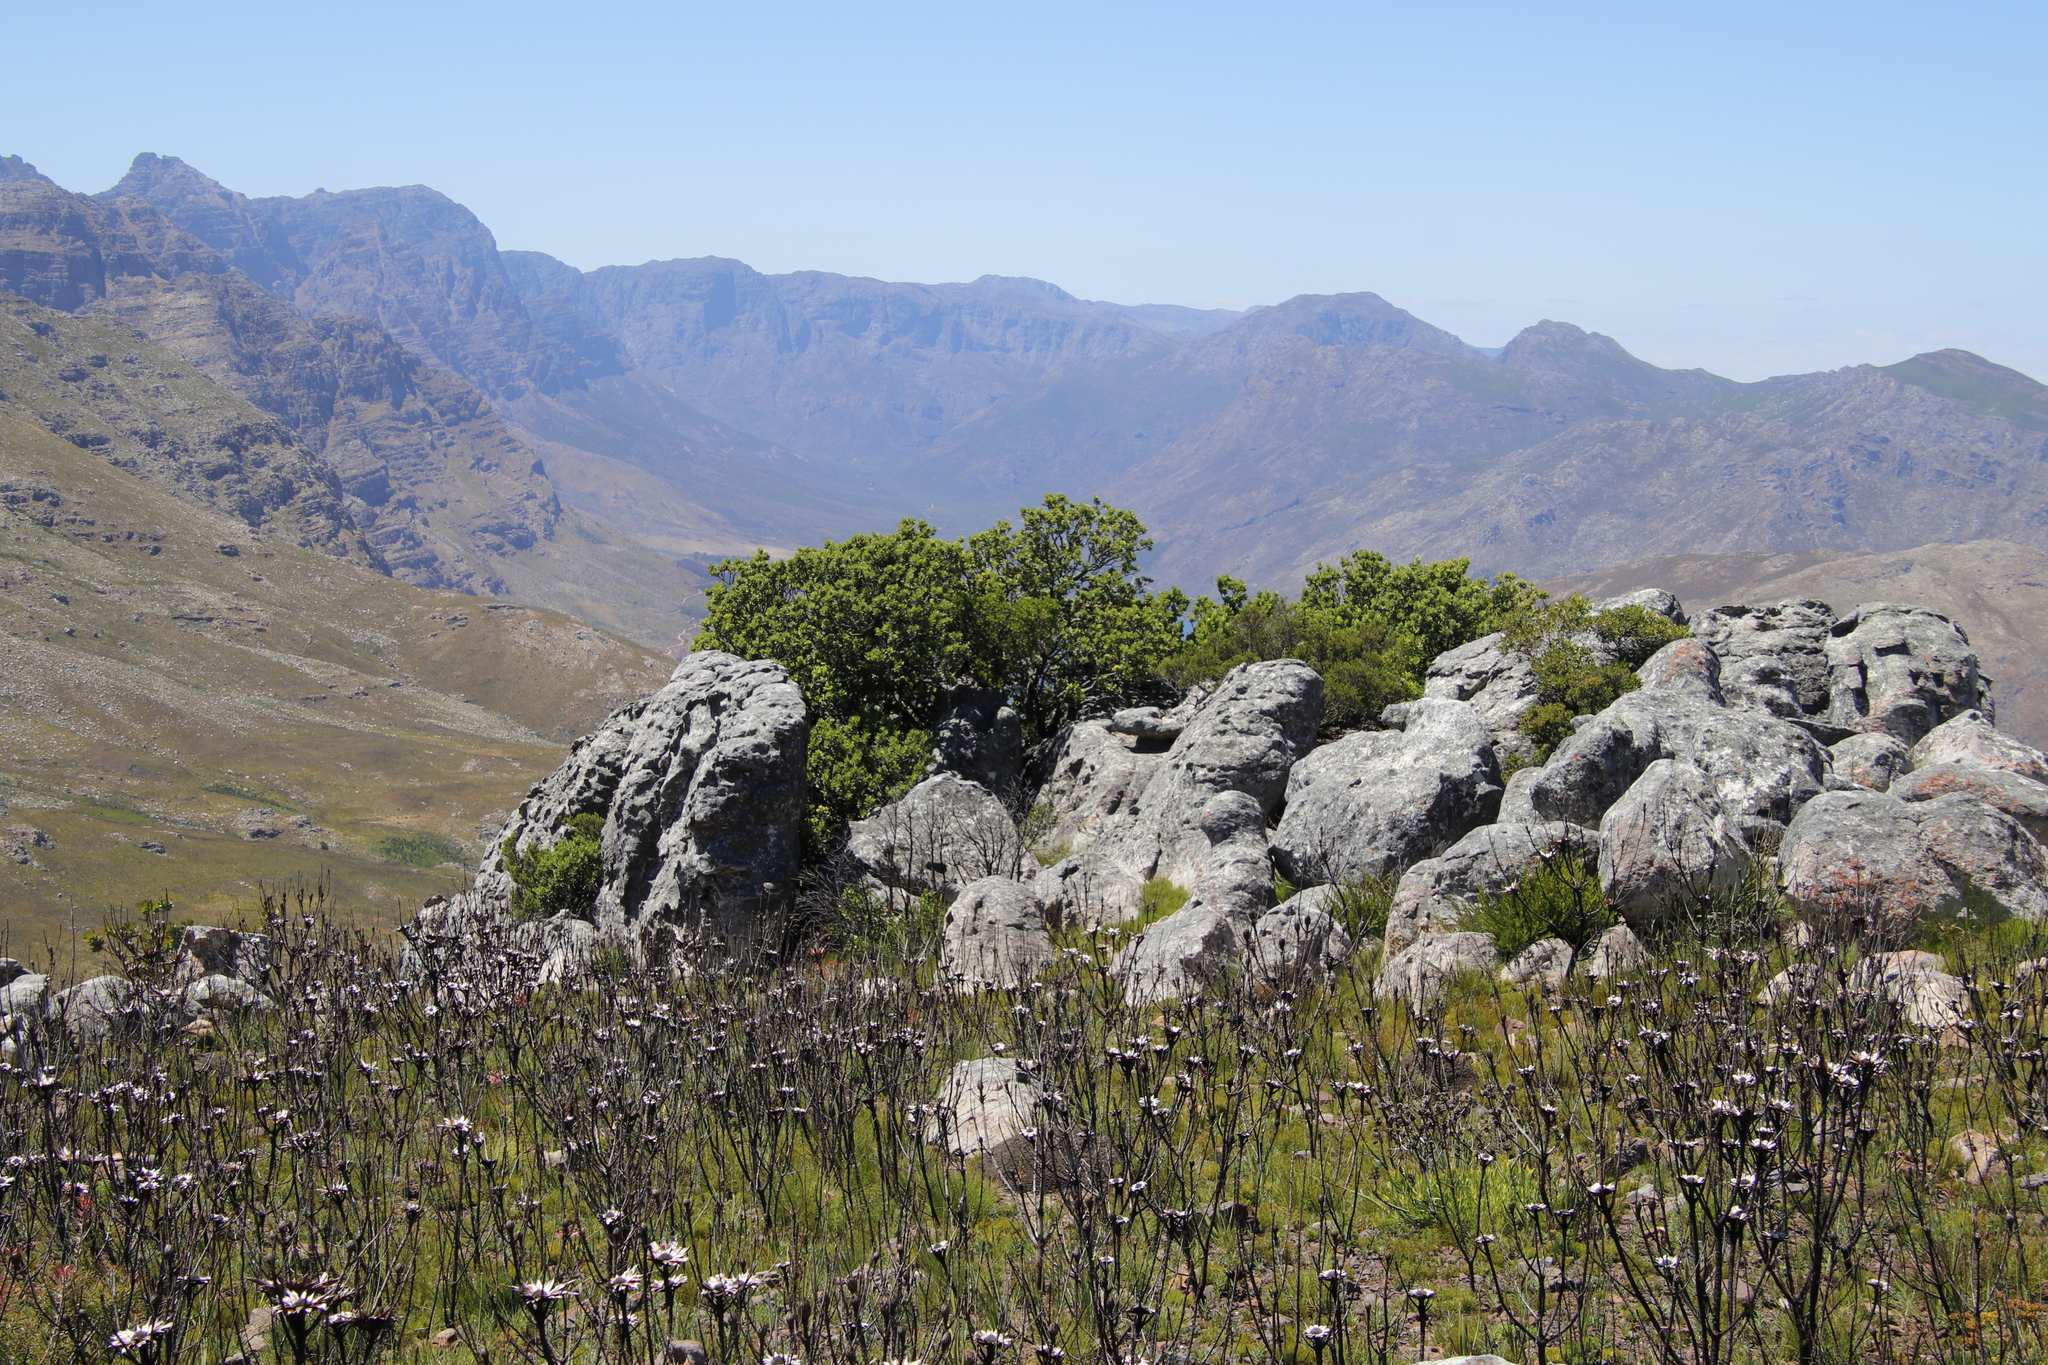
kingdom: Plantae
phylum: Tracheophyta
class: Magnoliopsida
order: Sapindales
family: Anacardiaceae
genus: Heeria
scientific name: Heeria argentea
